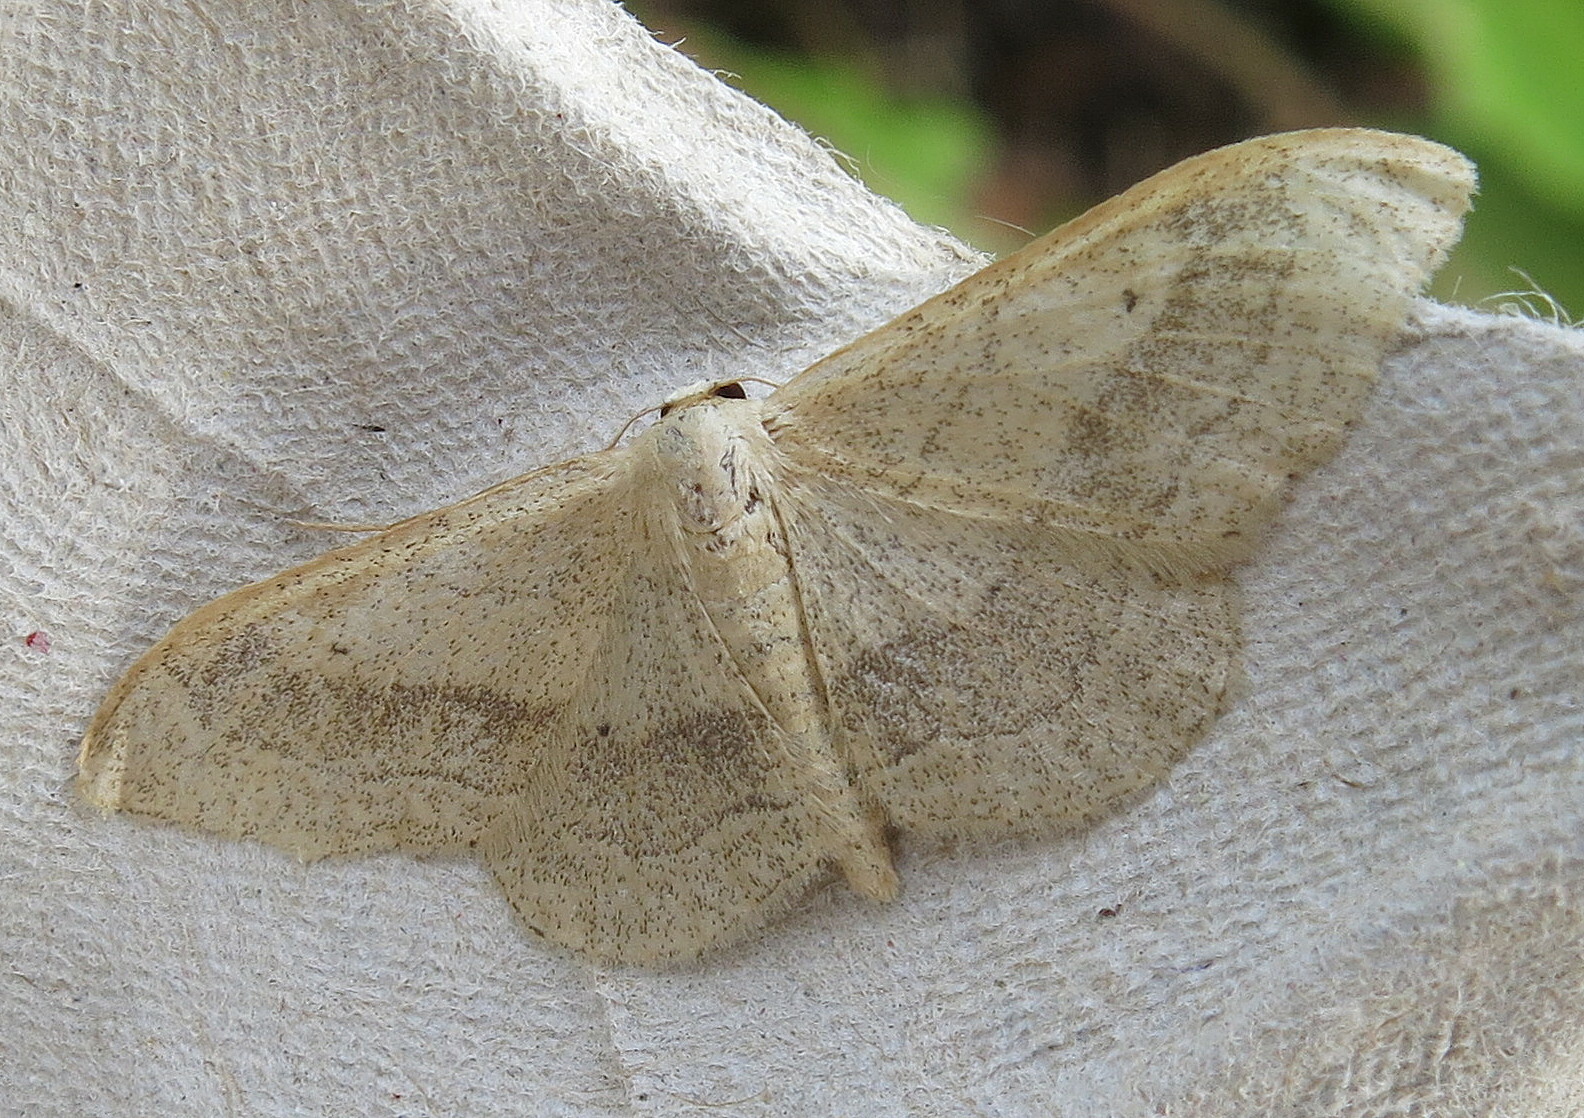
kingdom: Animalia
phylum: Arthropoda
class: Insecta
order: Lepidoptera
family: Geometridae
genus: Idaea
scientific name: Idaea aversata
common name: Riband wave
